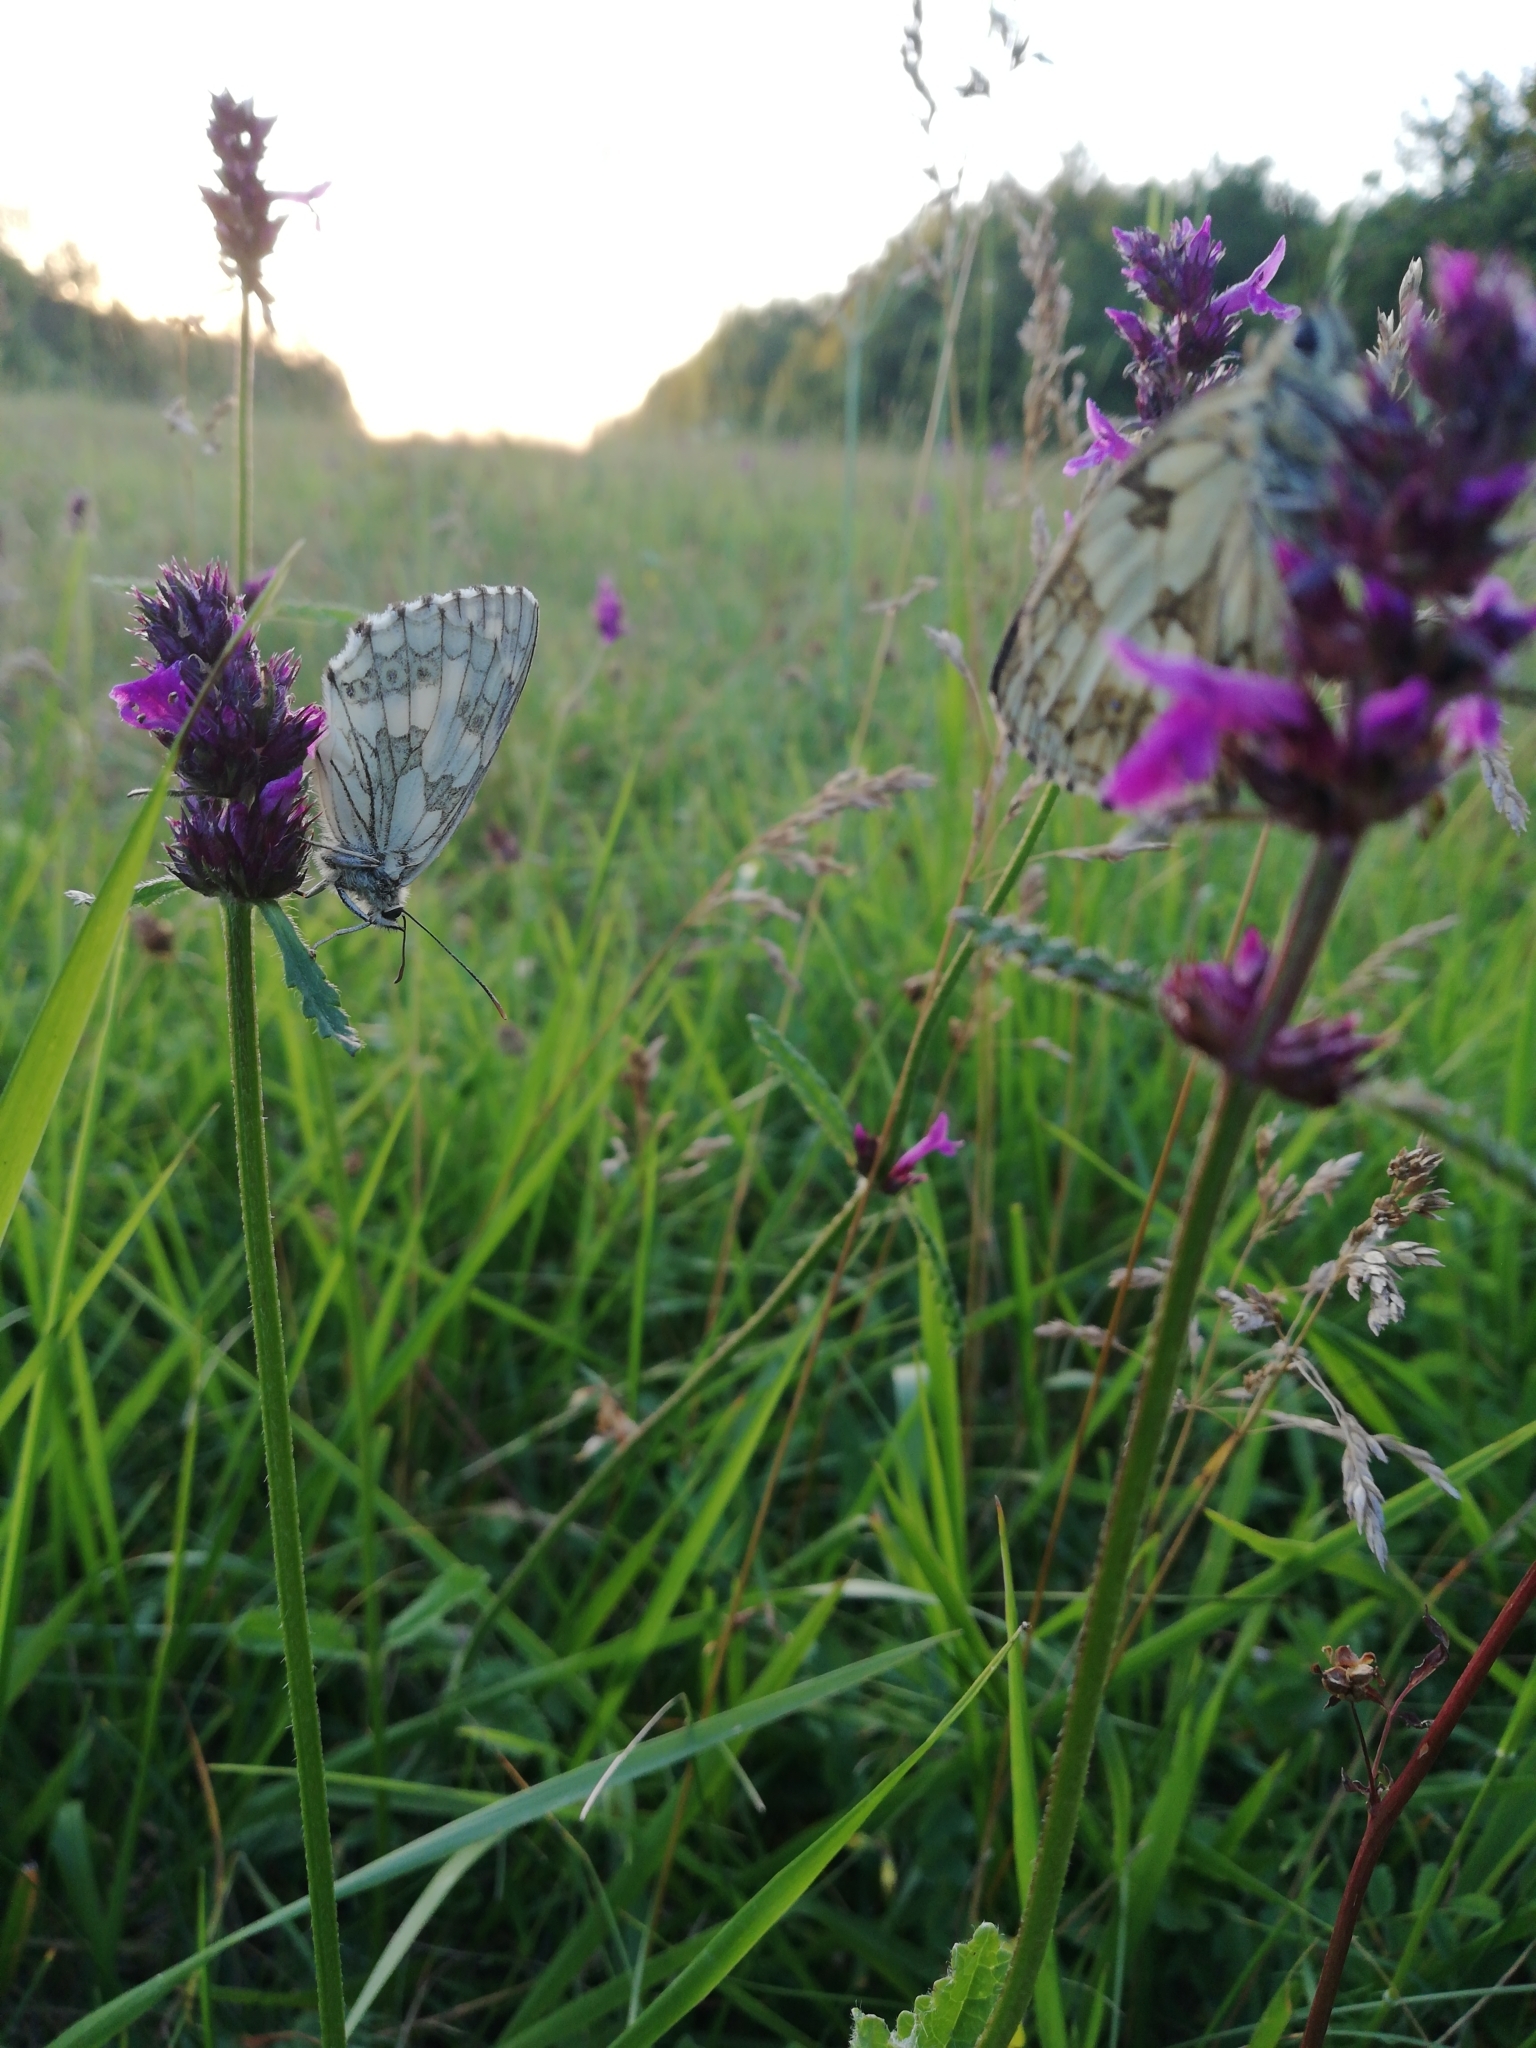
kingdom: Animalia
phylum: Arthropoda
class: Insecta
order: Lepidoptera
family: Nymphalidae
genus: Melanargia
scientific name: Melanargia galathea
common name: Marbled white
